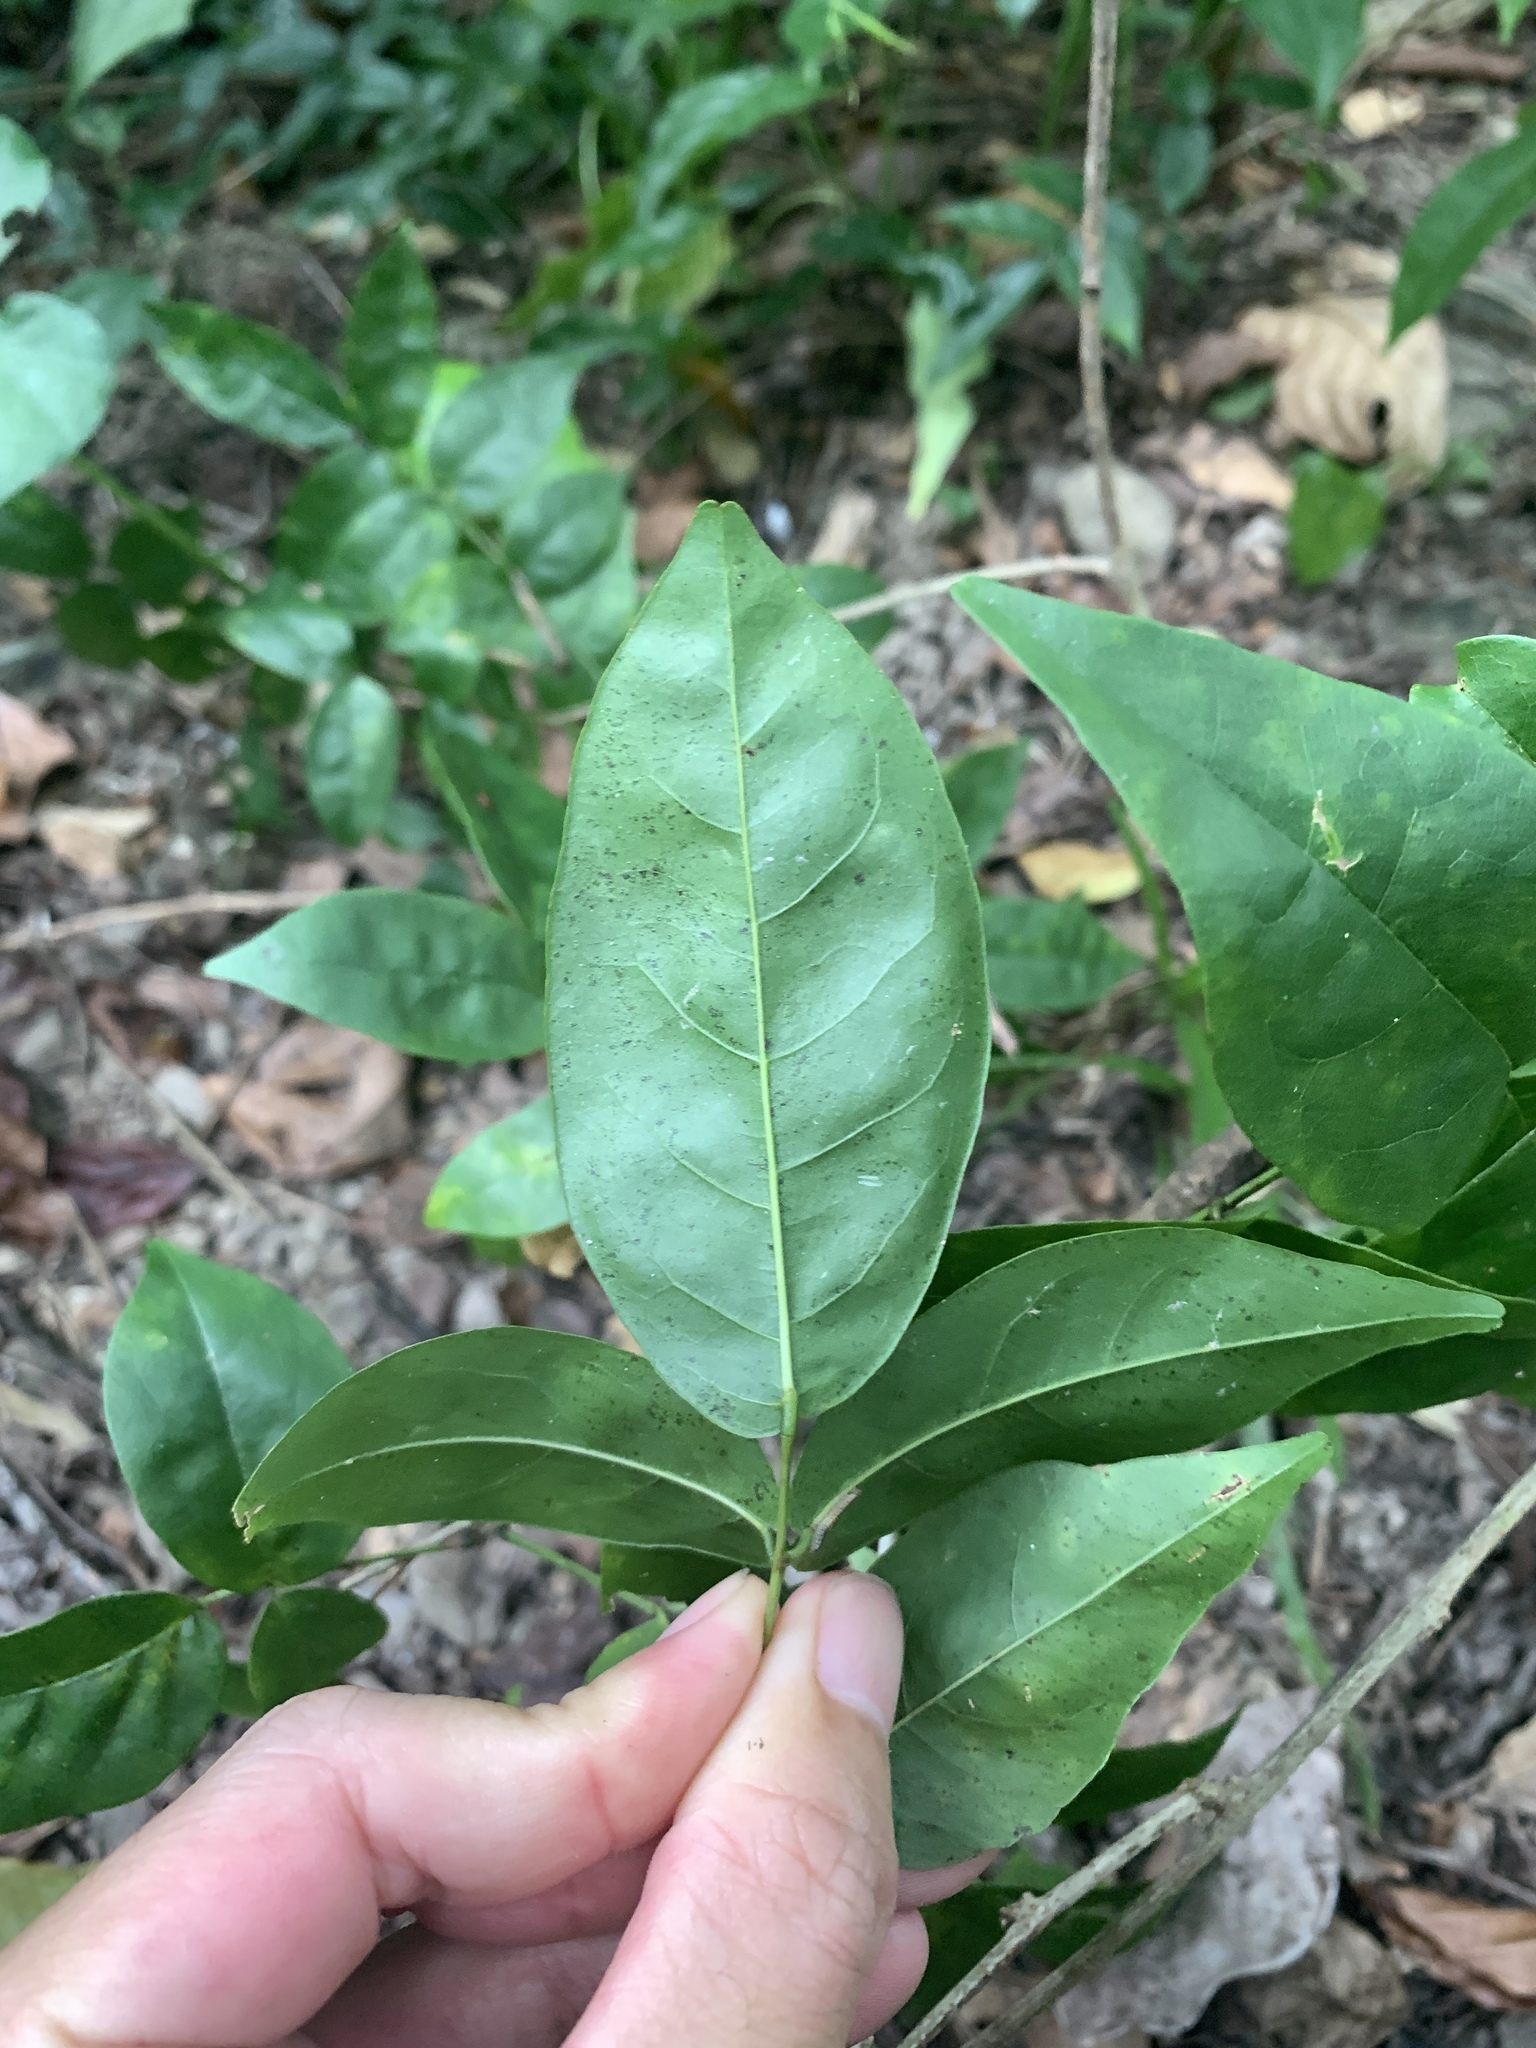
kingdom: Plantae
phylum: Tracheophyta
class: Magnoliopsida
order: Fabales
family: Fabaceae
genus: Wisteriopsis
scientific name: Wisteriopsis reticulata
